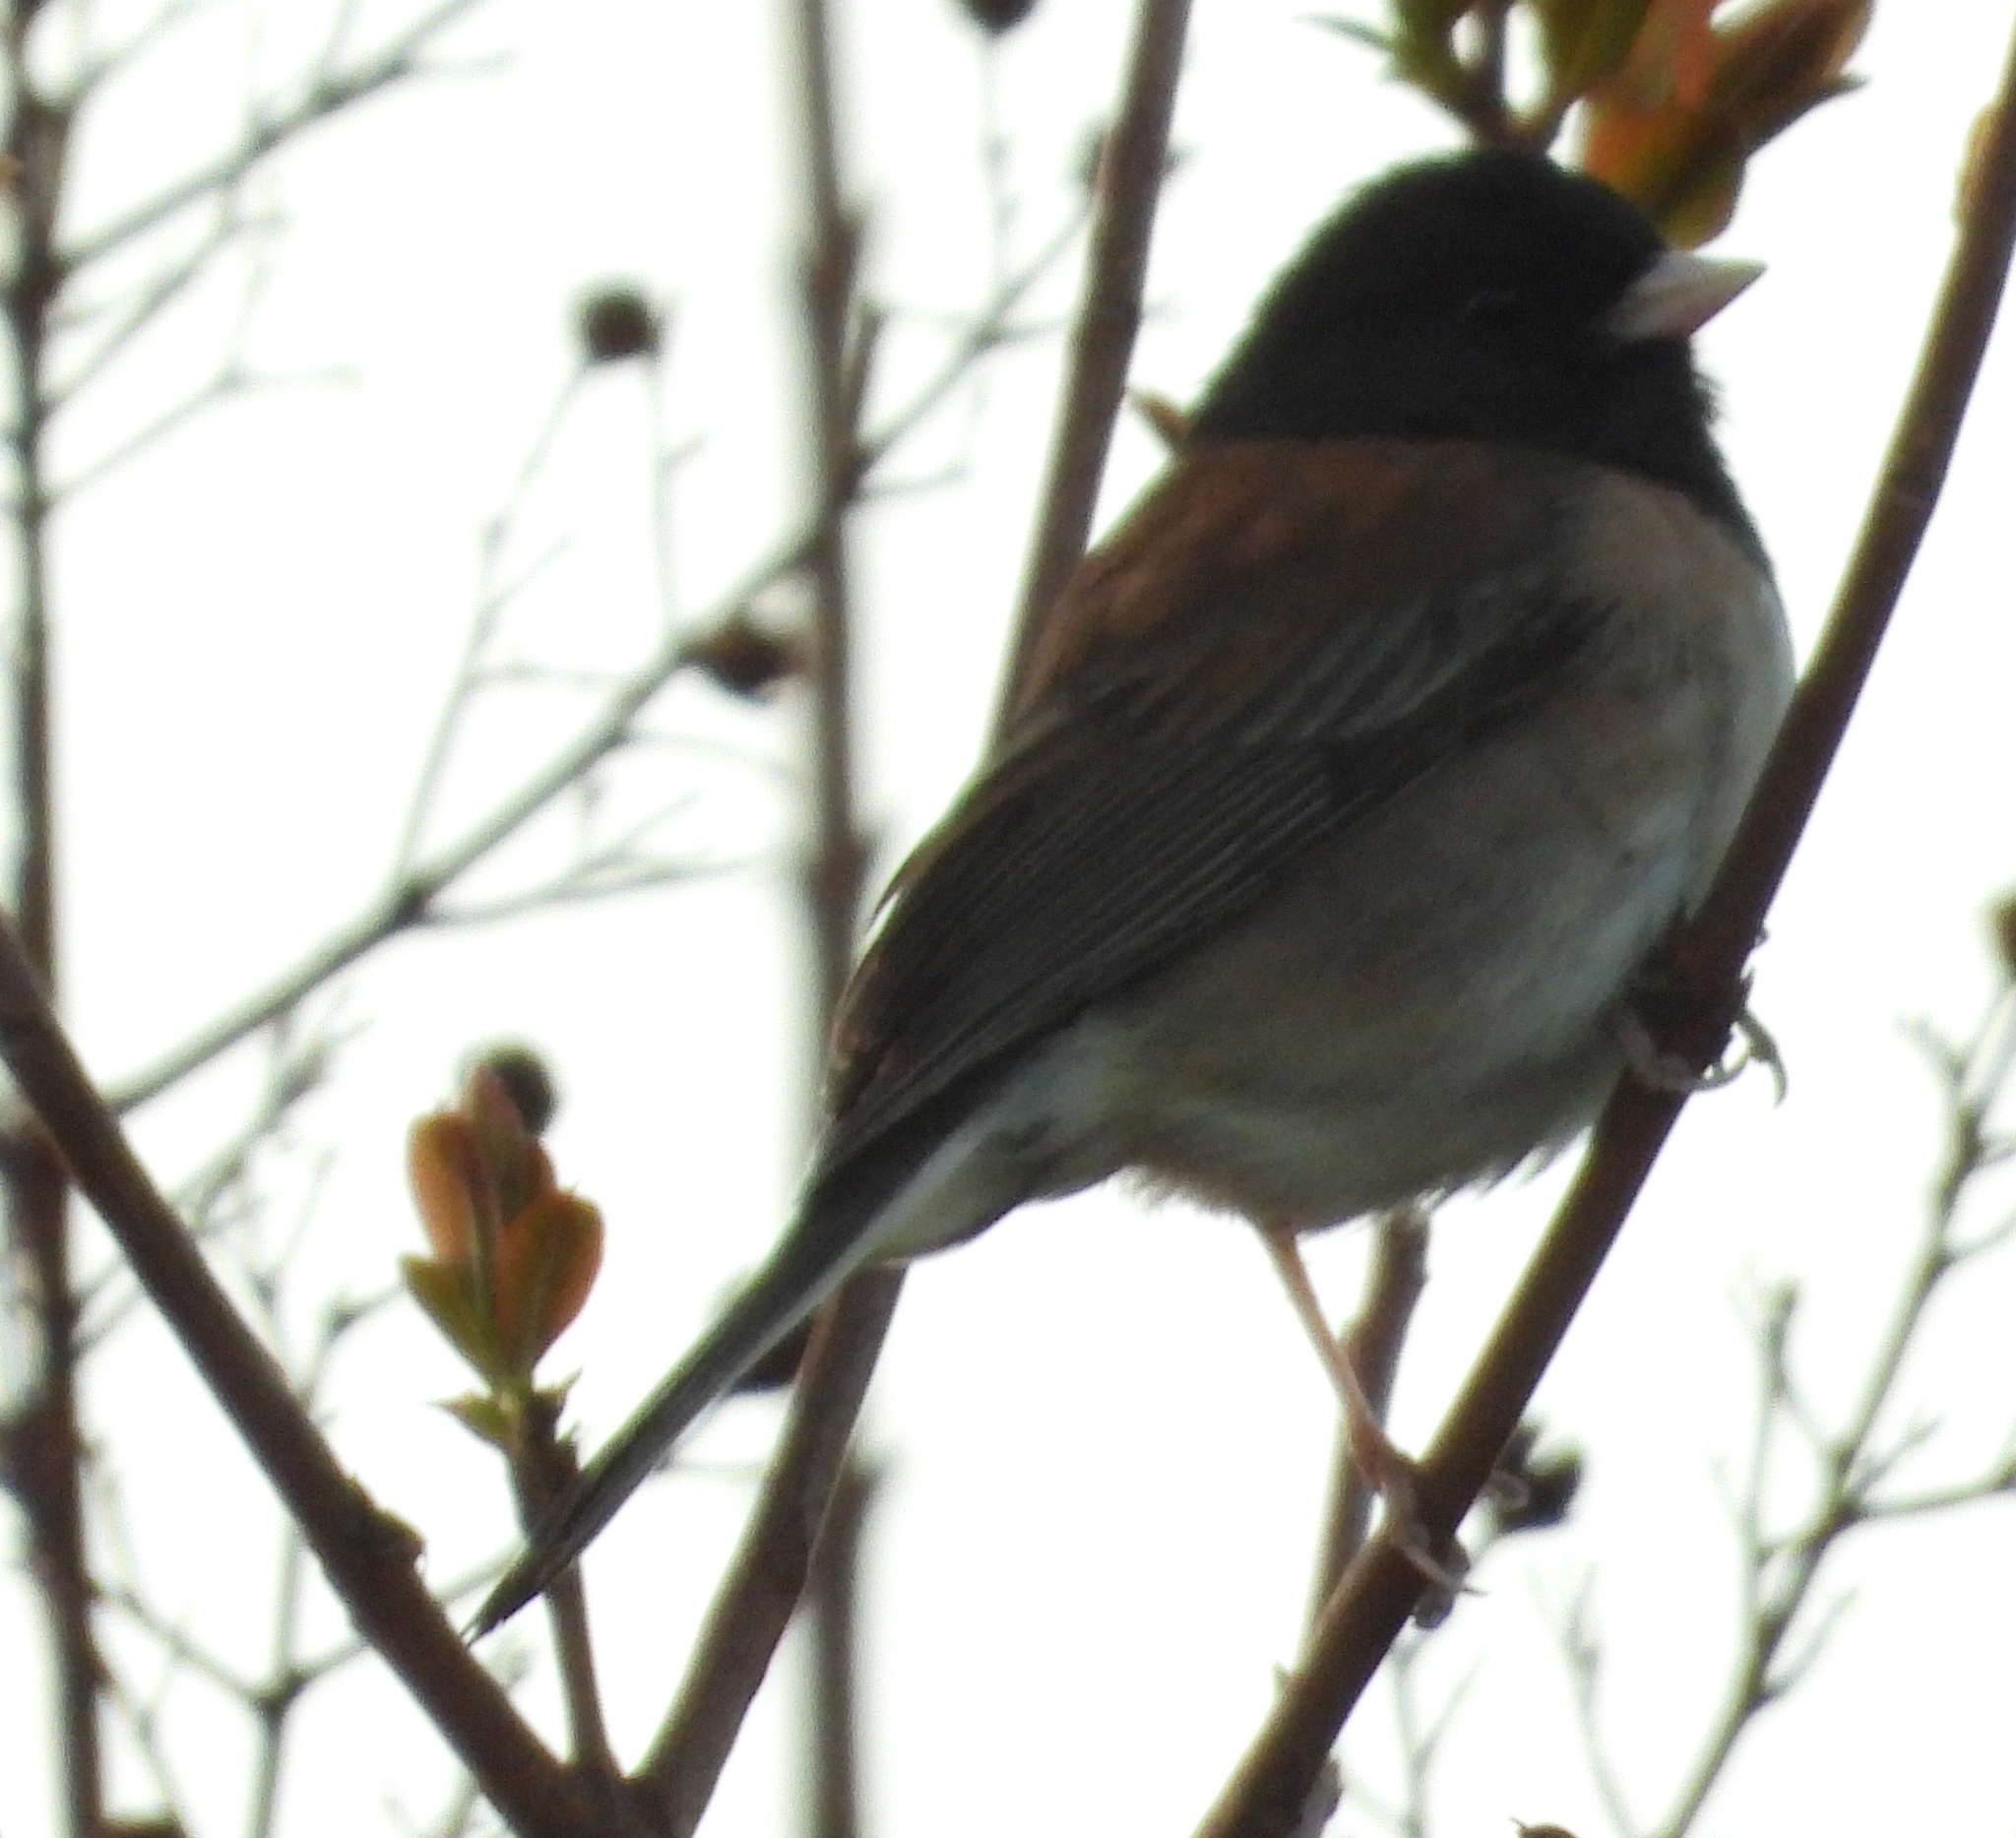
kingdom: Animalia
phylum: Chordata
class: Aves
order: Passeriformes
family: Passerellidae
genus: Junco
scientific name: Junco hyemalis
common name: Dark-eyed junco
